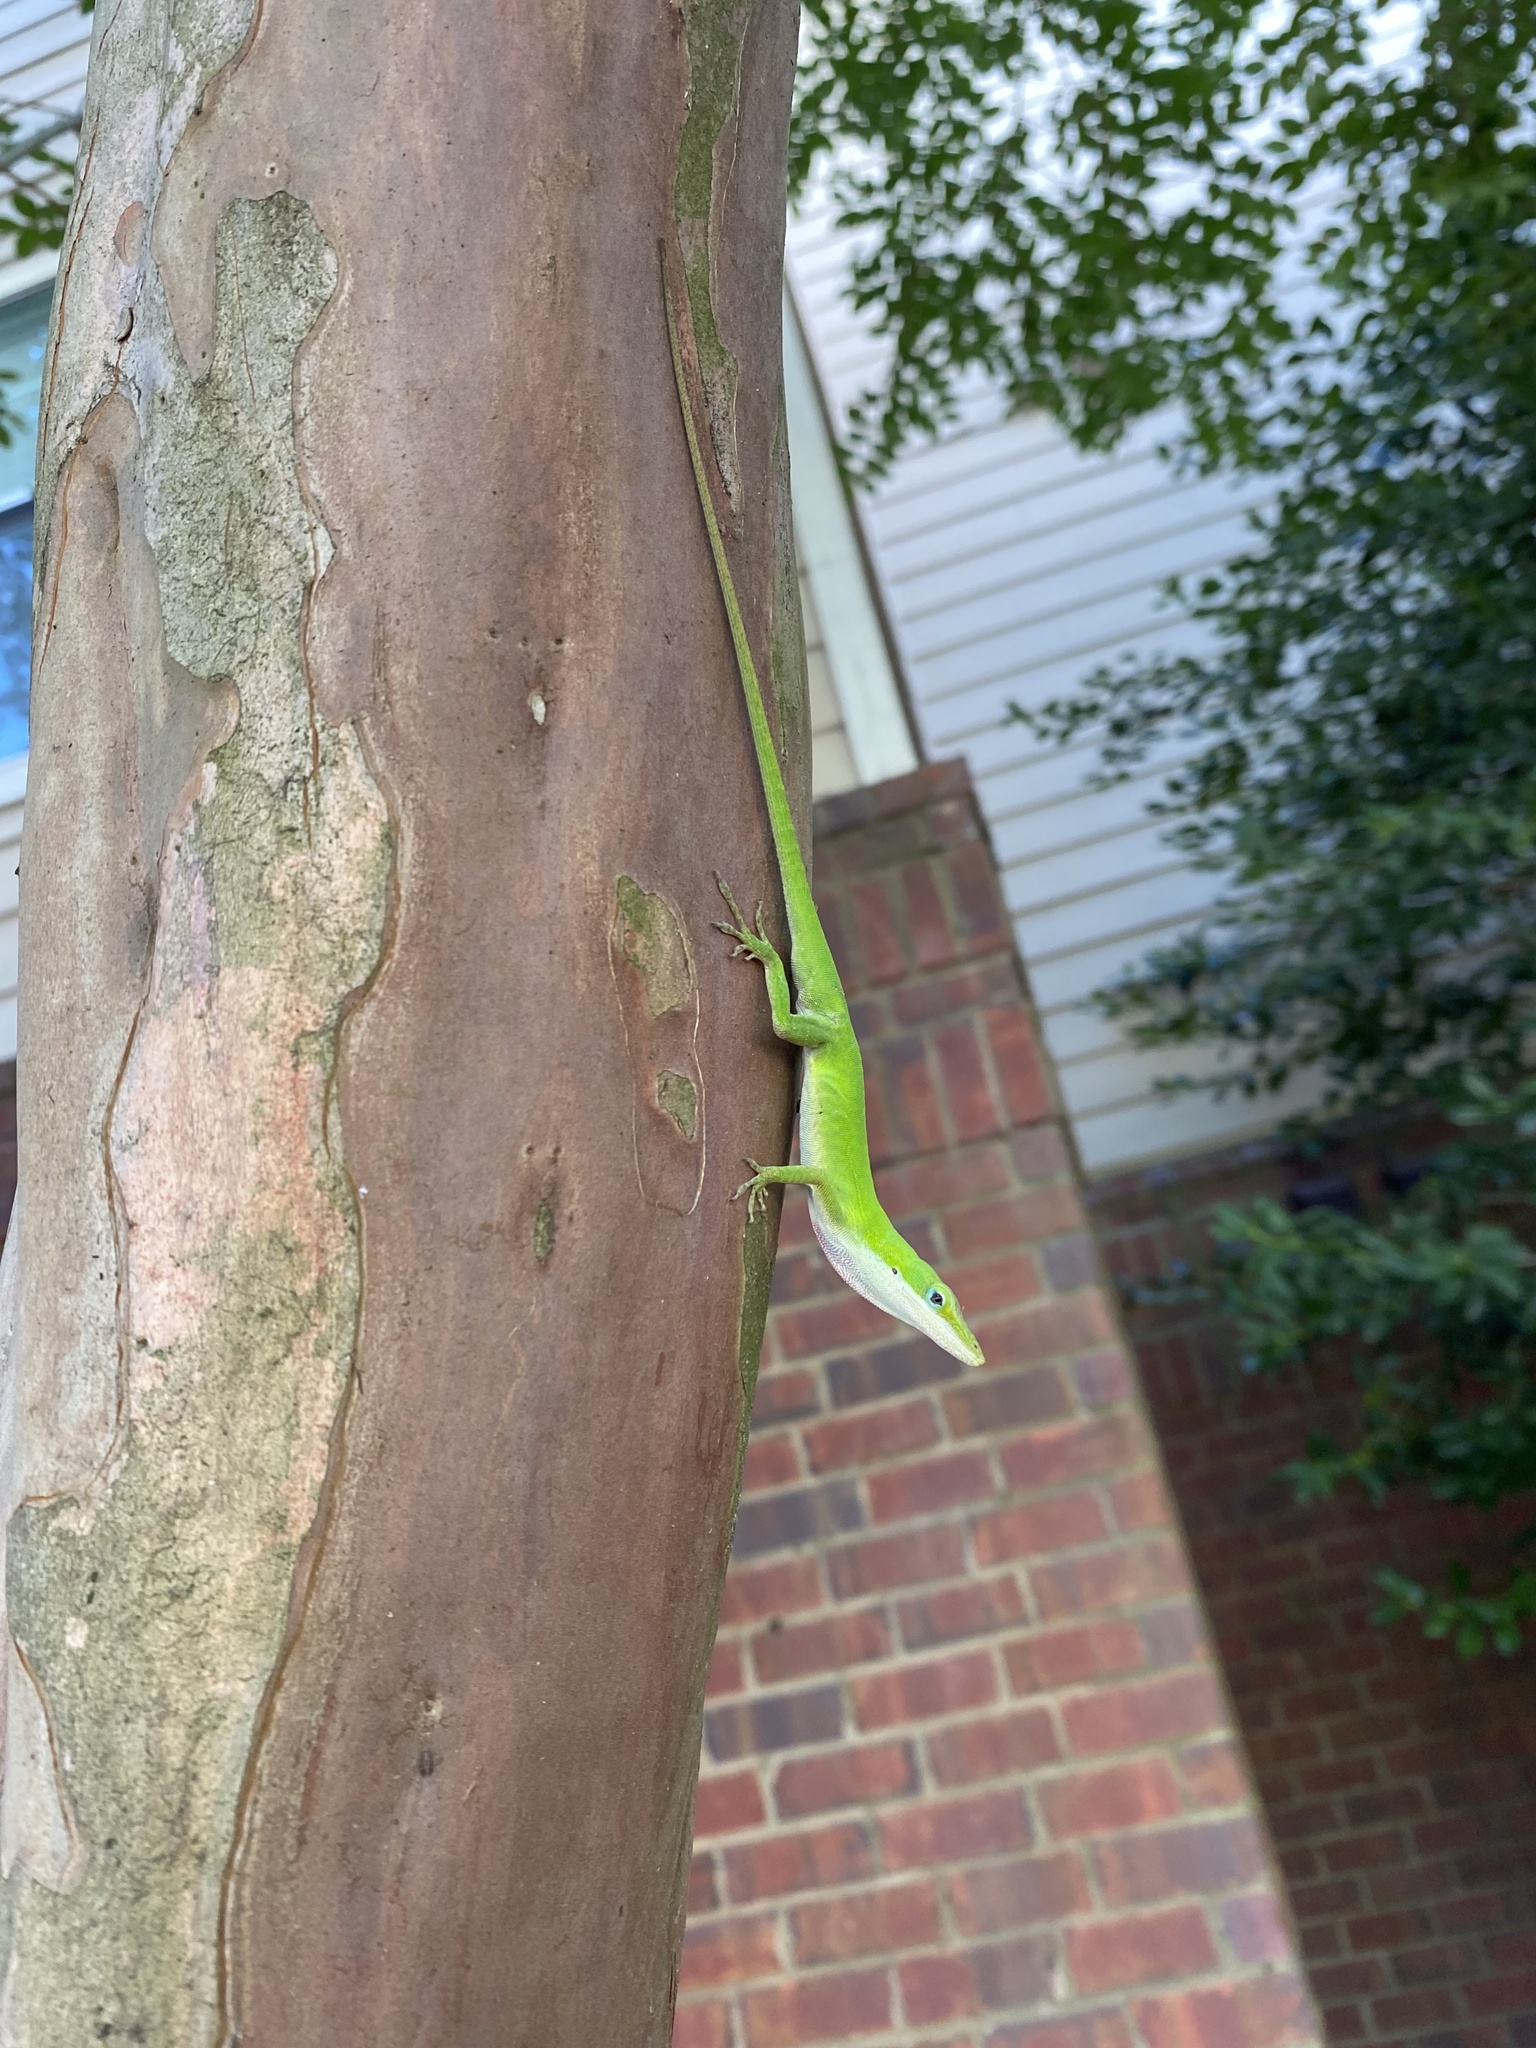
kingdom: Animalia
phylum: Chordata
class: Squamata
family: Dactyloidae
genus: Anolis
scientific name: Anolis carolinensis
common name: Green anole
